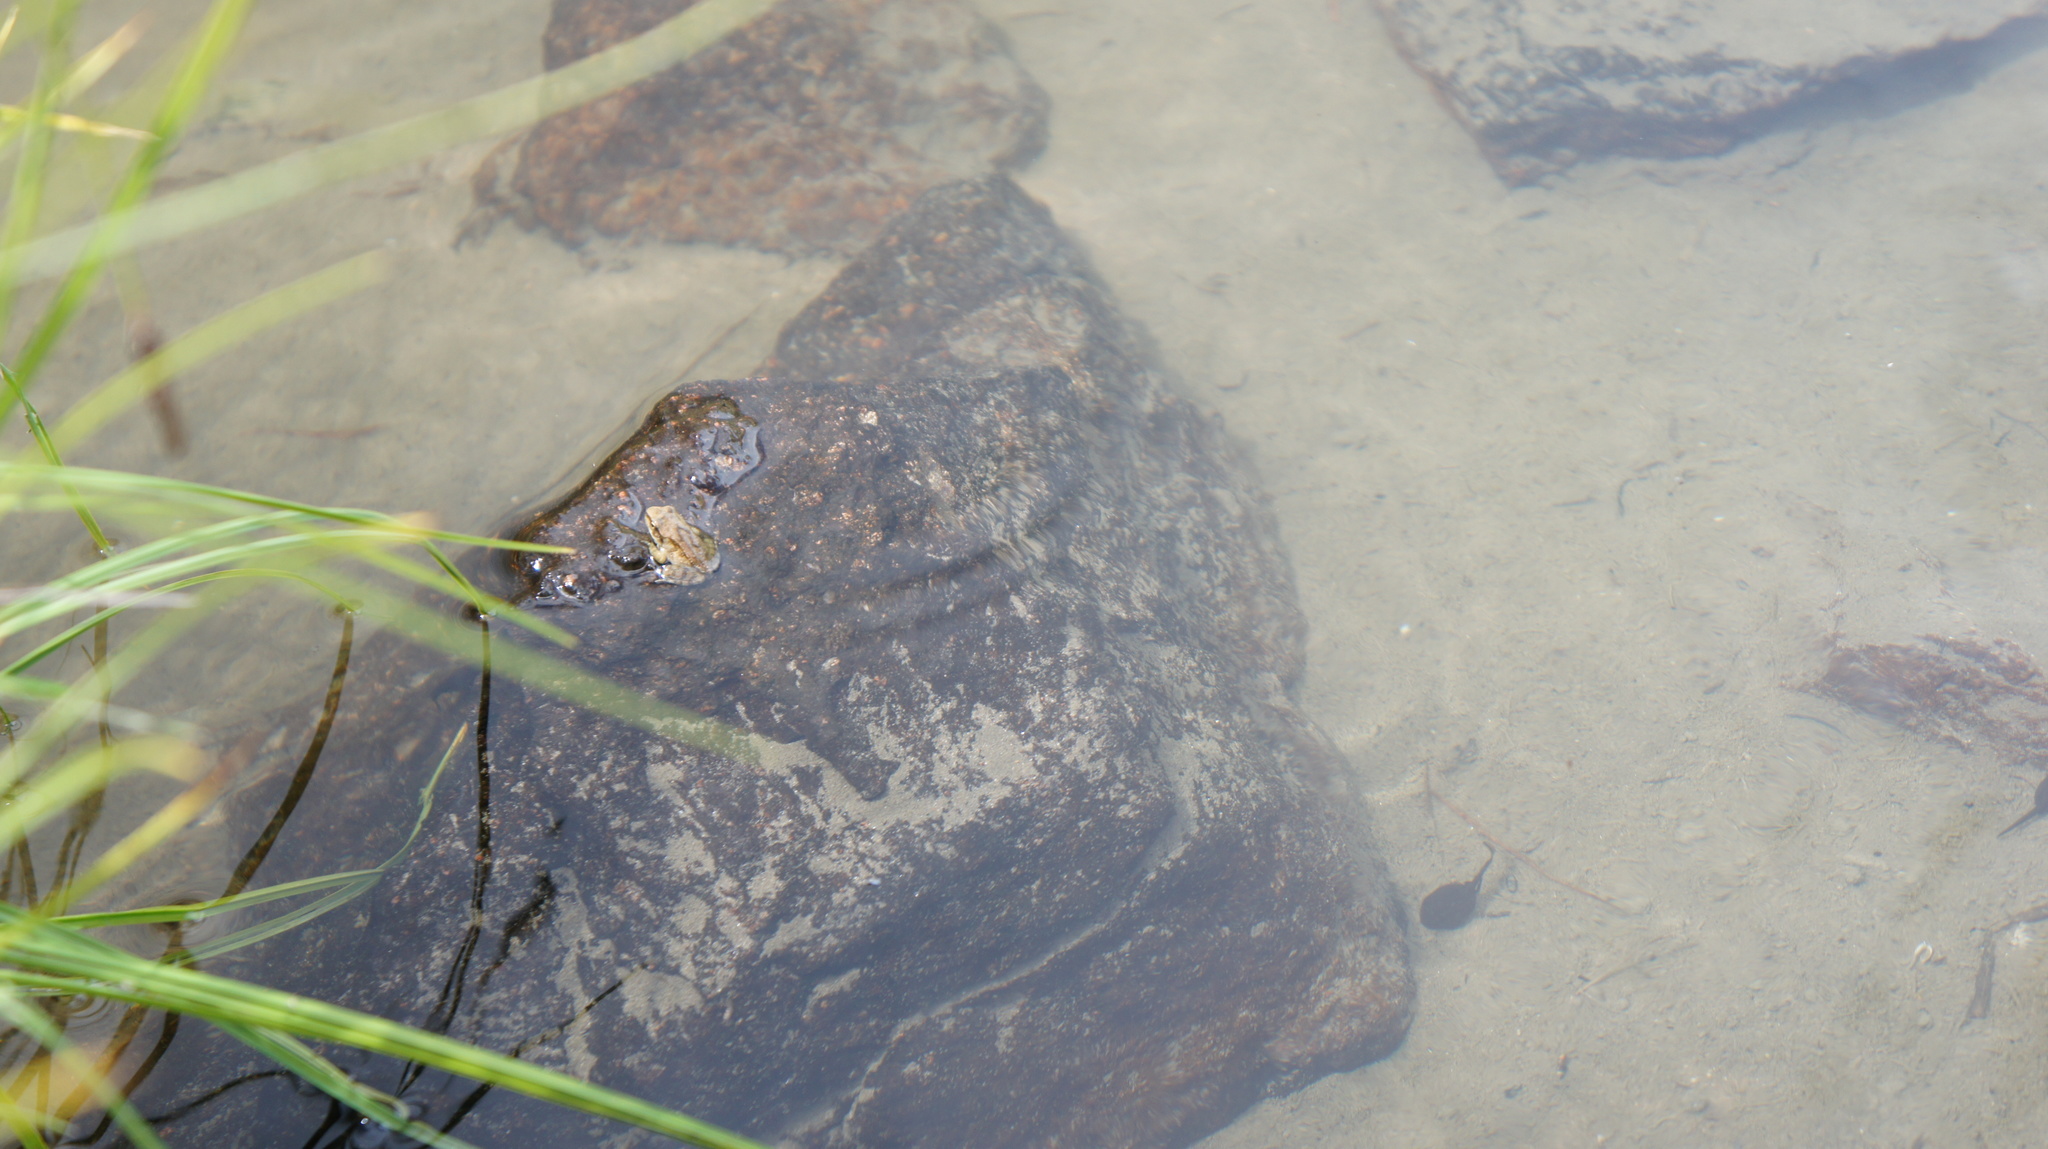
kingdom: Animalia
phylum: Chordata
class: Amphibia
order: Anura
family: Ranidae
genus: Rana
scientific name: Rana temporaria
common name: Common frog
